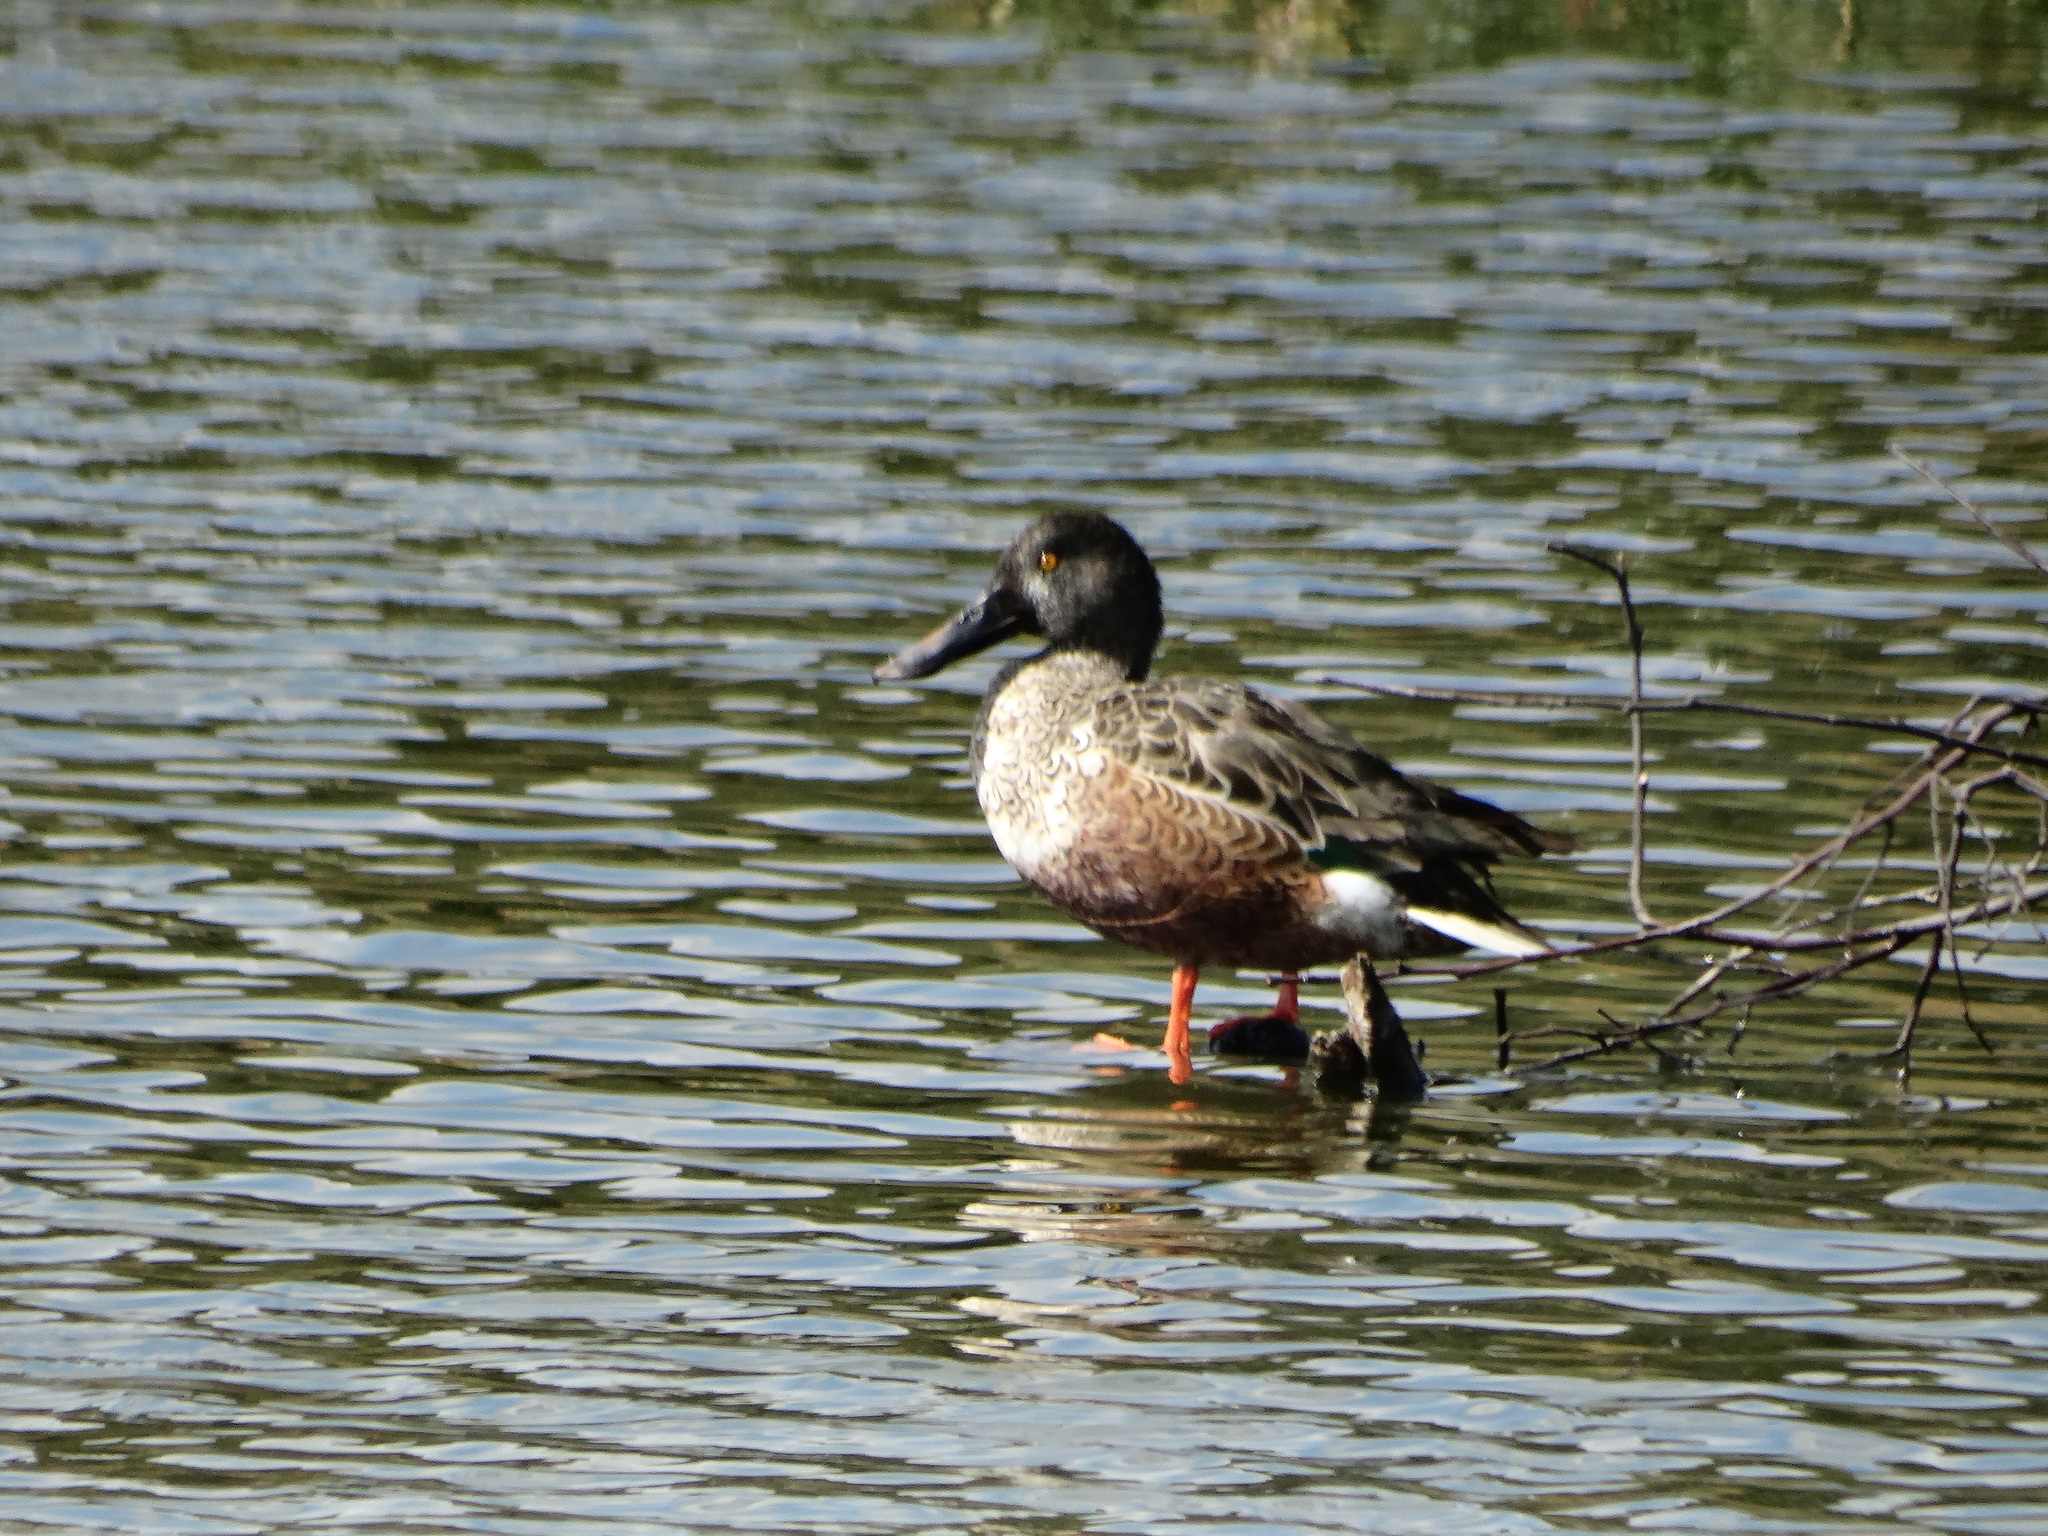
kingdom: Animalia
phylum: Chordata
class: Aves
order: Anseriformes
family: Anatidae
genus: Spatula
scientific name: Spatula clypeata
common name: Northern shoveler
